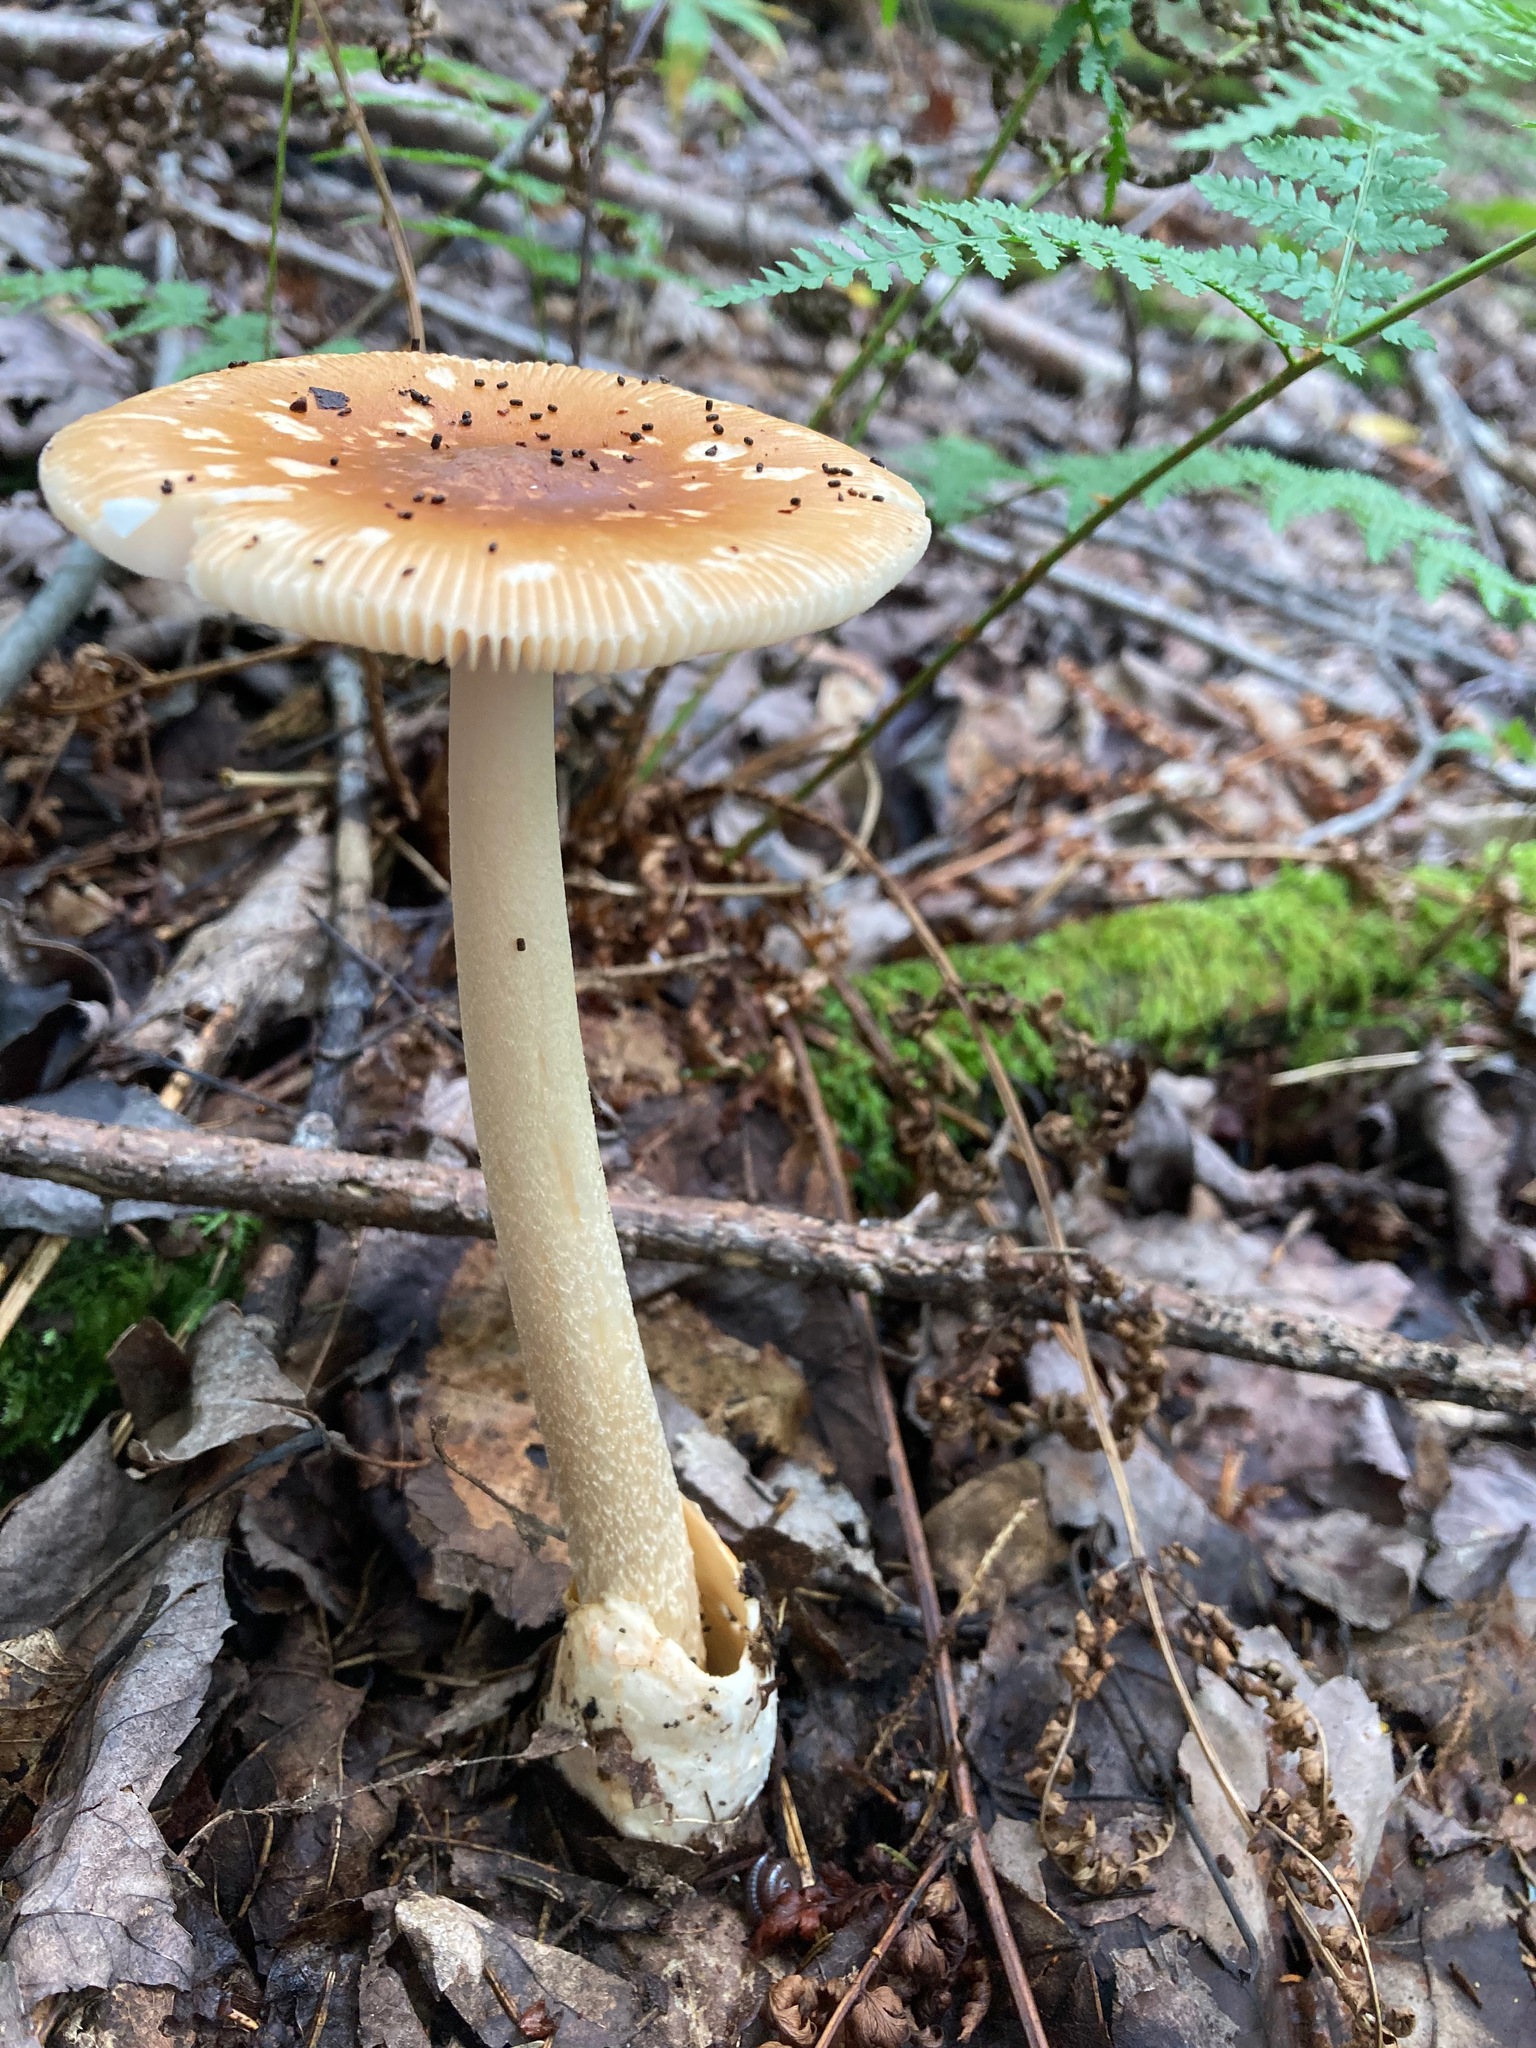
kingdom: Fungi
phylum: Basidiomycota
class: Agaricomycetes
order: Agaricales
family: Amanitaceae
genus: Amanita
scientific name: Amanita fulva
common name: Tawny grisette
